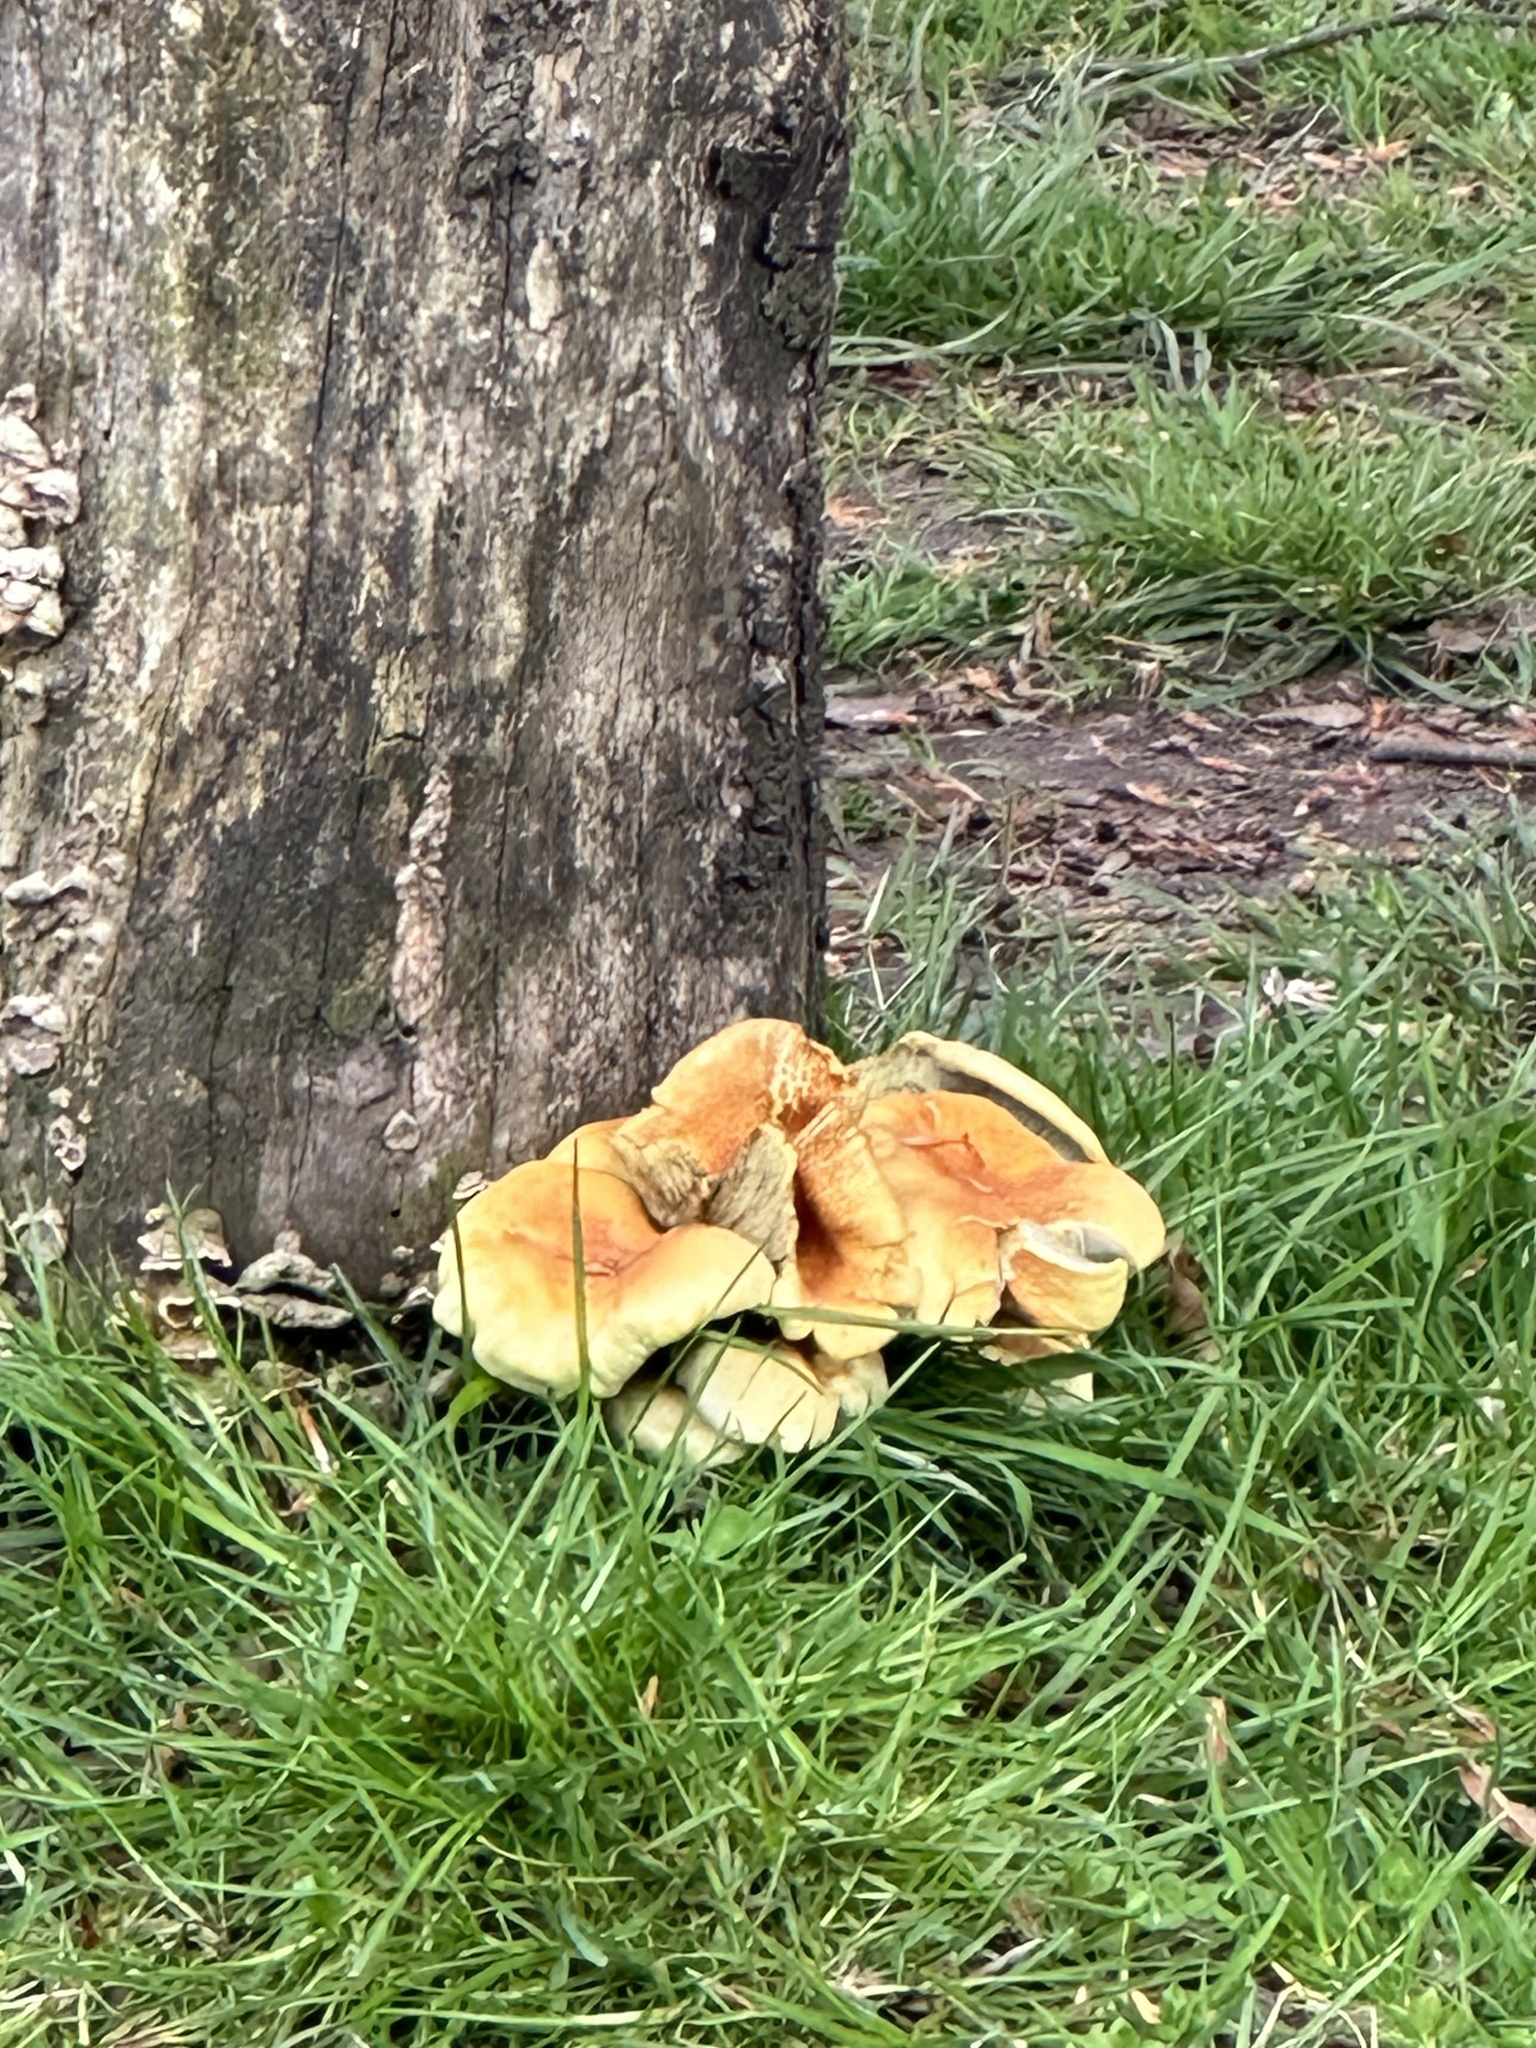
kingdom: Fungi
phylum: Basidiomycota
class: Agaricomycetes
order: Agaricales
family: Strophariaceae
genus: Hypholoma
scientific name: Hypholoma fasciculare
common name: Sulphur tuft
